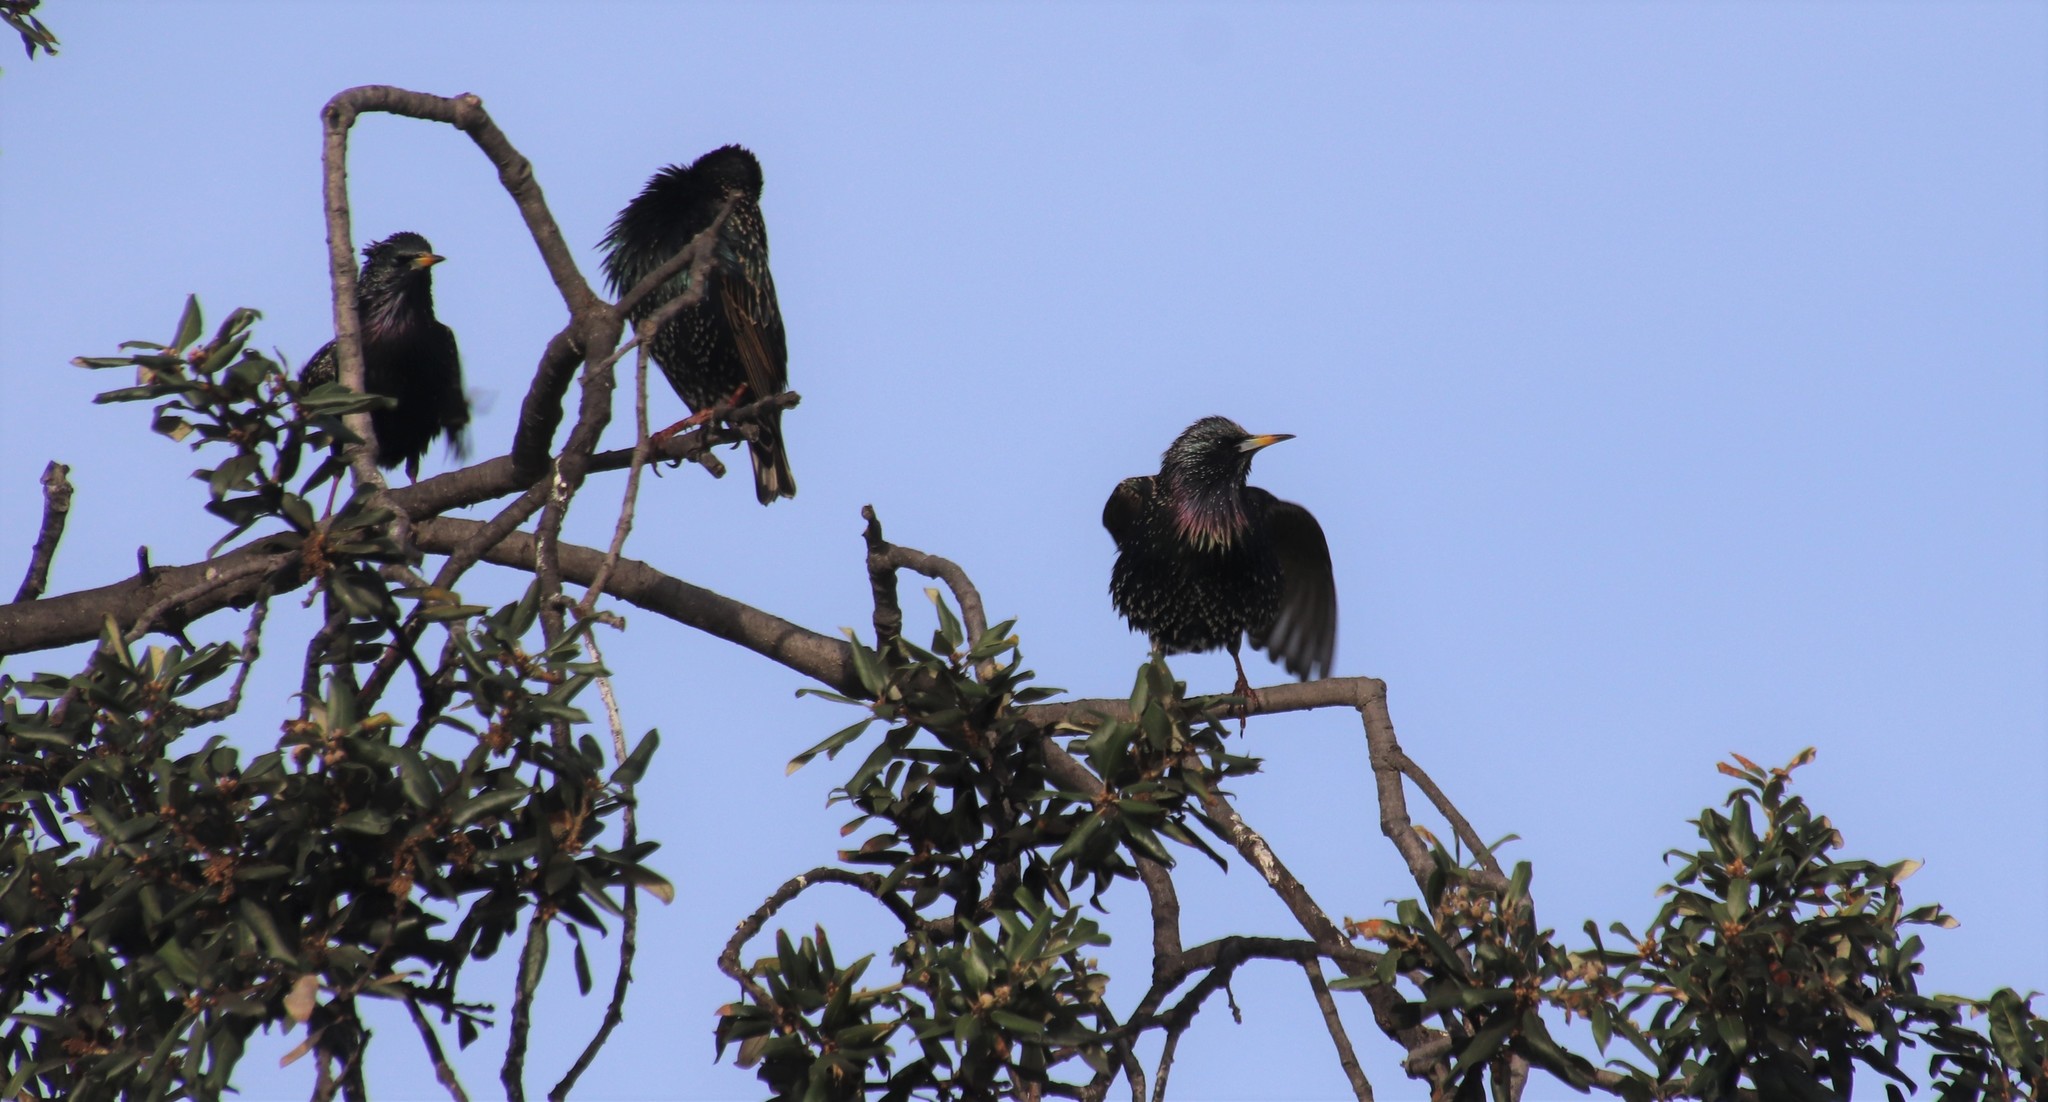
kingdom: Animalia
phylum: Chordata
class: Aves
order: Passeriformes
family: Sturnidae
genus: Sturnus
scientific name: Sturnus vulgaris
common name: Common starling
